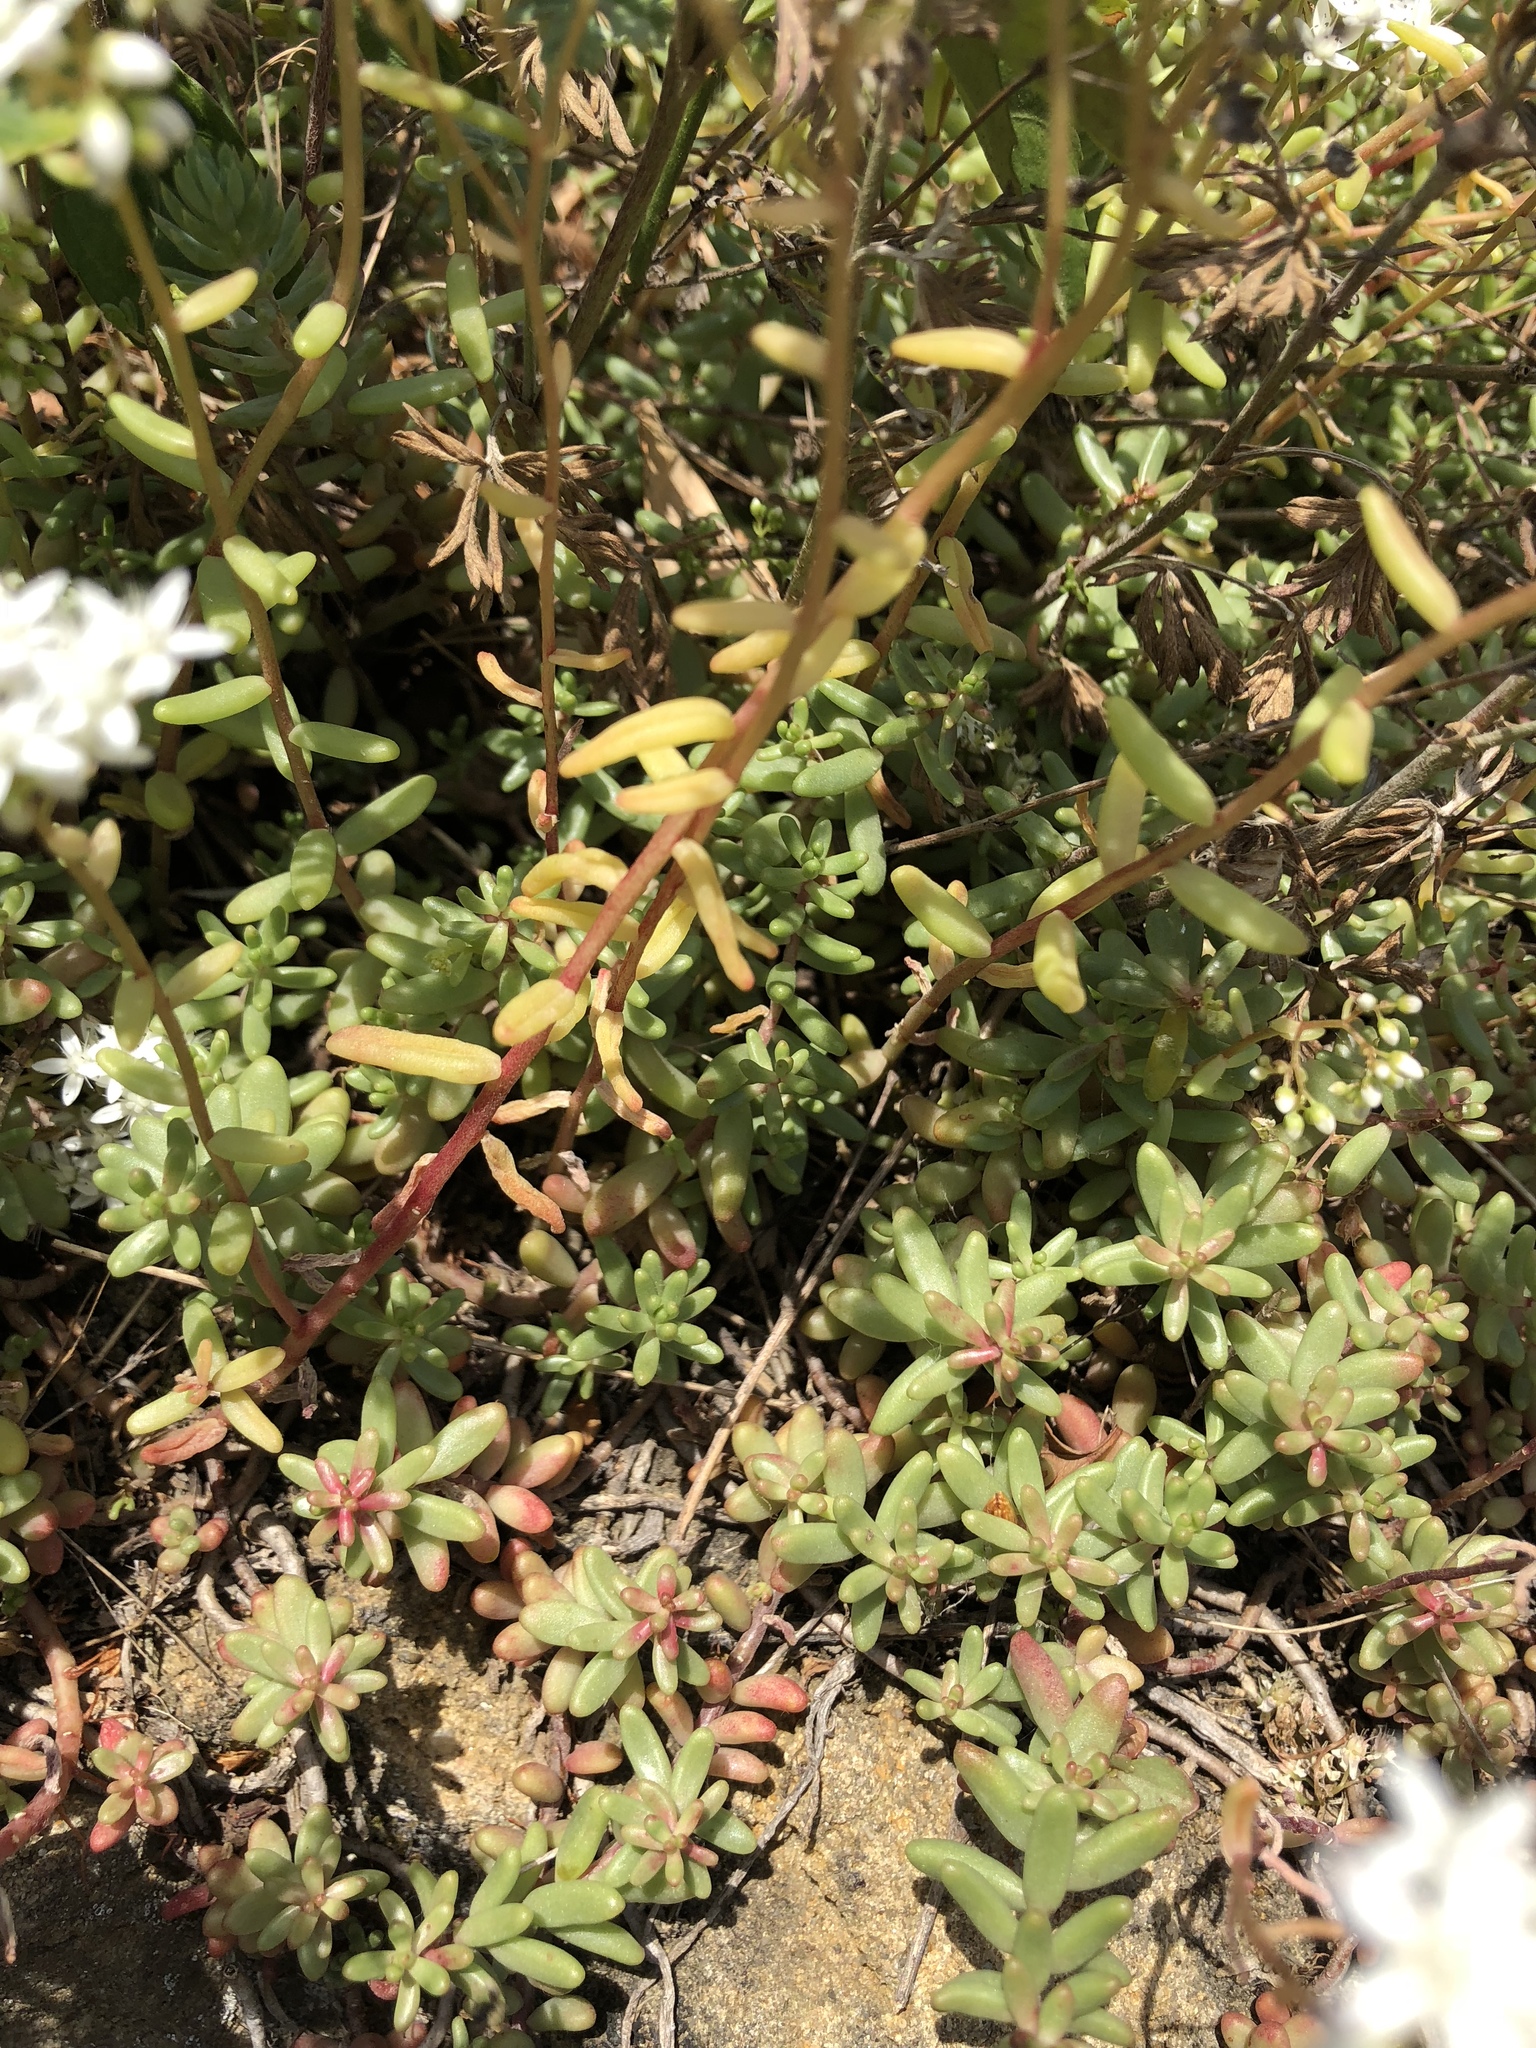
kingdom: Plantae
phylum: Tracheophyta
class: Magnoliopsida
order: Saxifragales
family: Crassulaceae
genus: Sedum
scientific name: Sedum album
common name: White stonecrop
